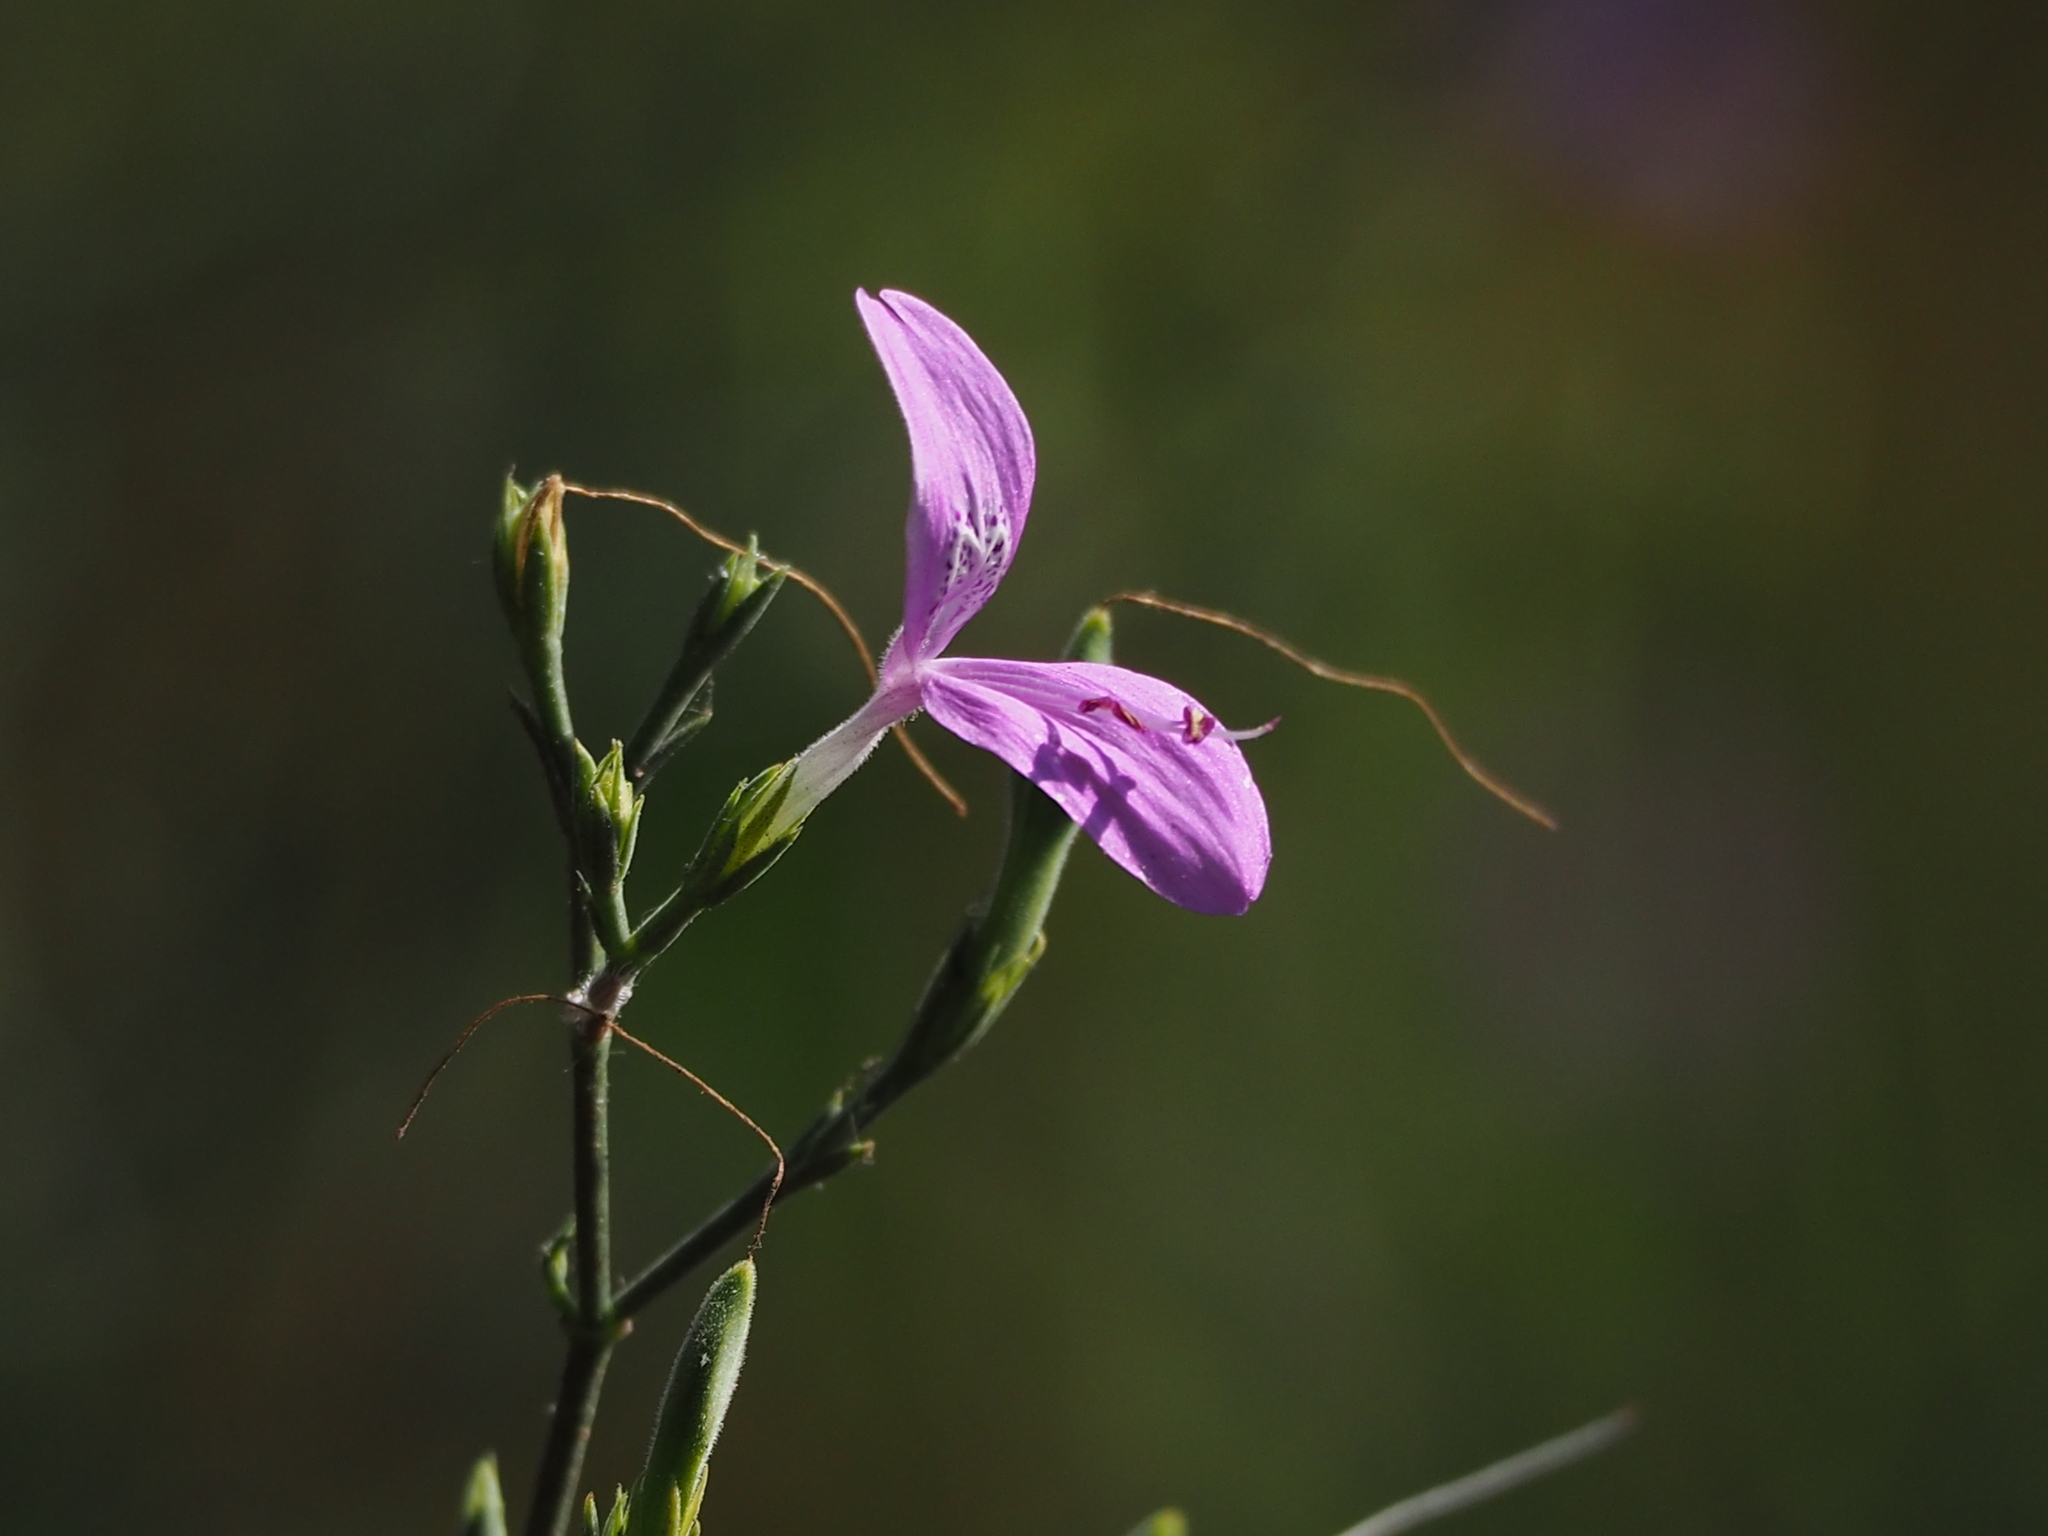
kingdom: Plantae
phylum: Tracheophyta
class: Magnoliopsida
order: Lamiales
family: Acanthaceae
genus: Hypoestes
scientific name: Hypoestes cumingiana
